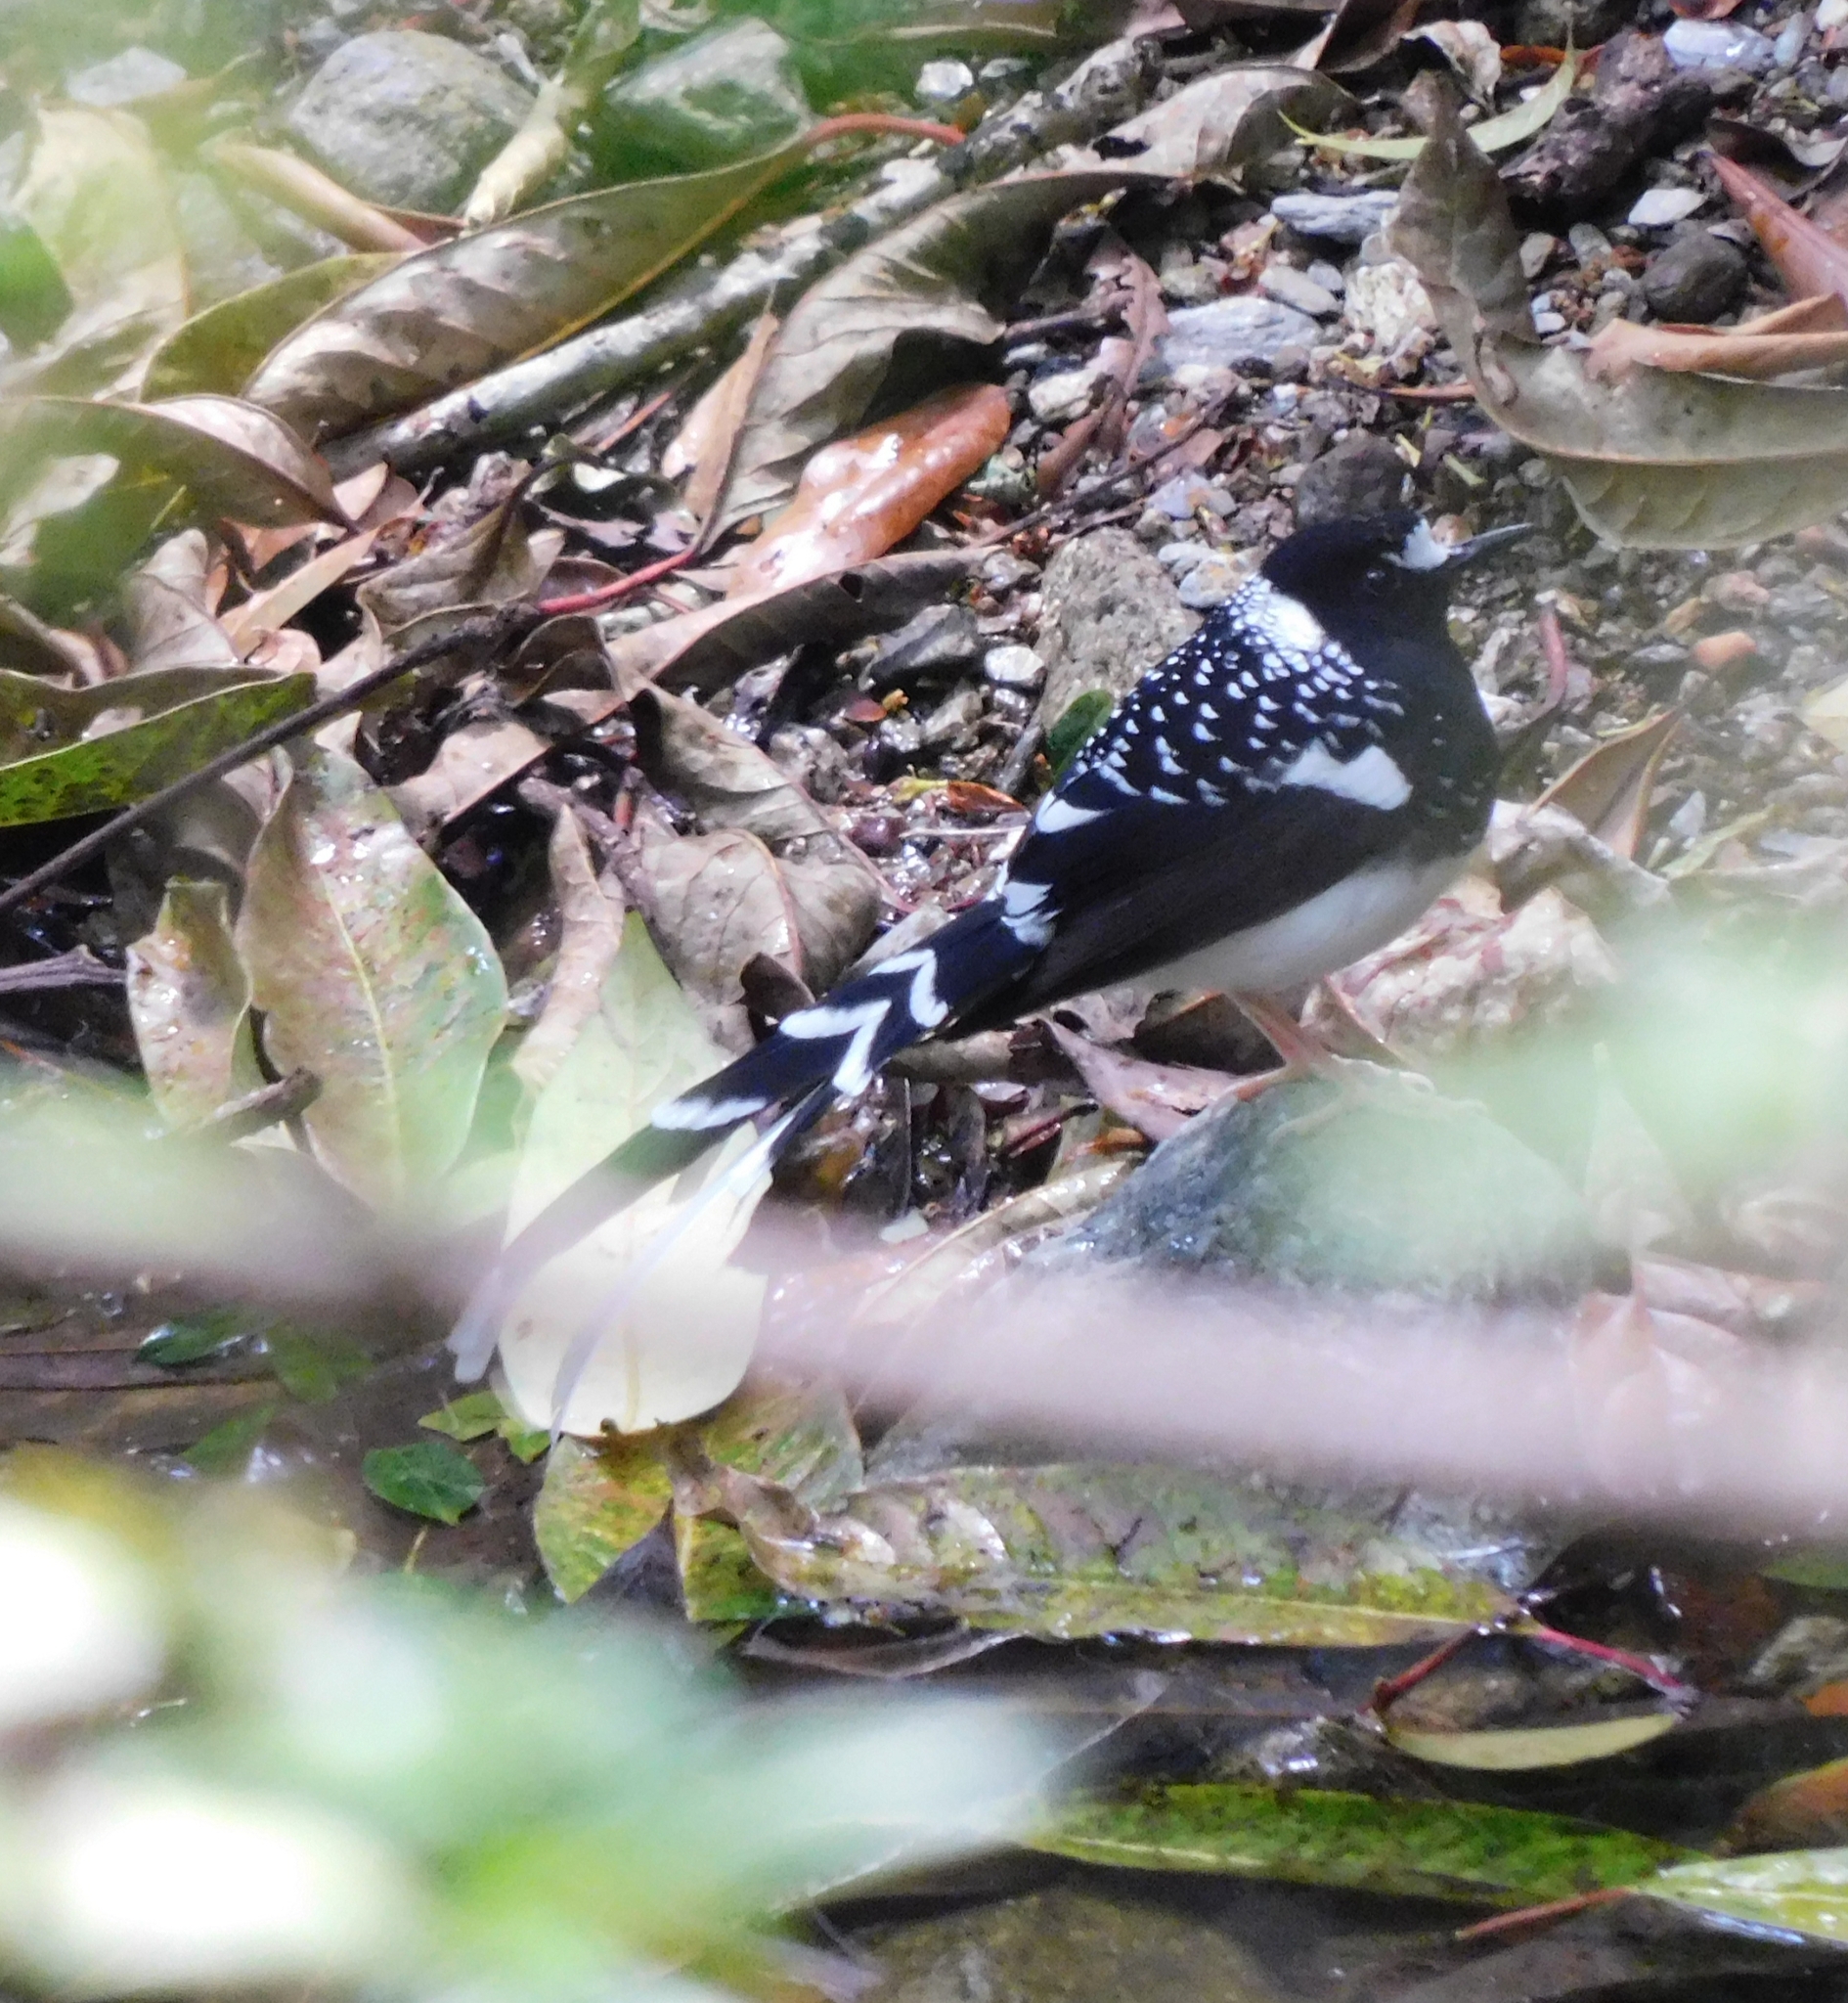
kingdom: Animalia
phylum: Chordata
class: Aves
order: Passeriformes
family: Muscicapidae
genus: Enicurus
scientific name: Enicurus maculatus
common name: Spotted forktail
